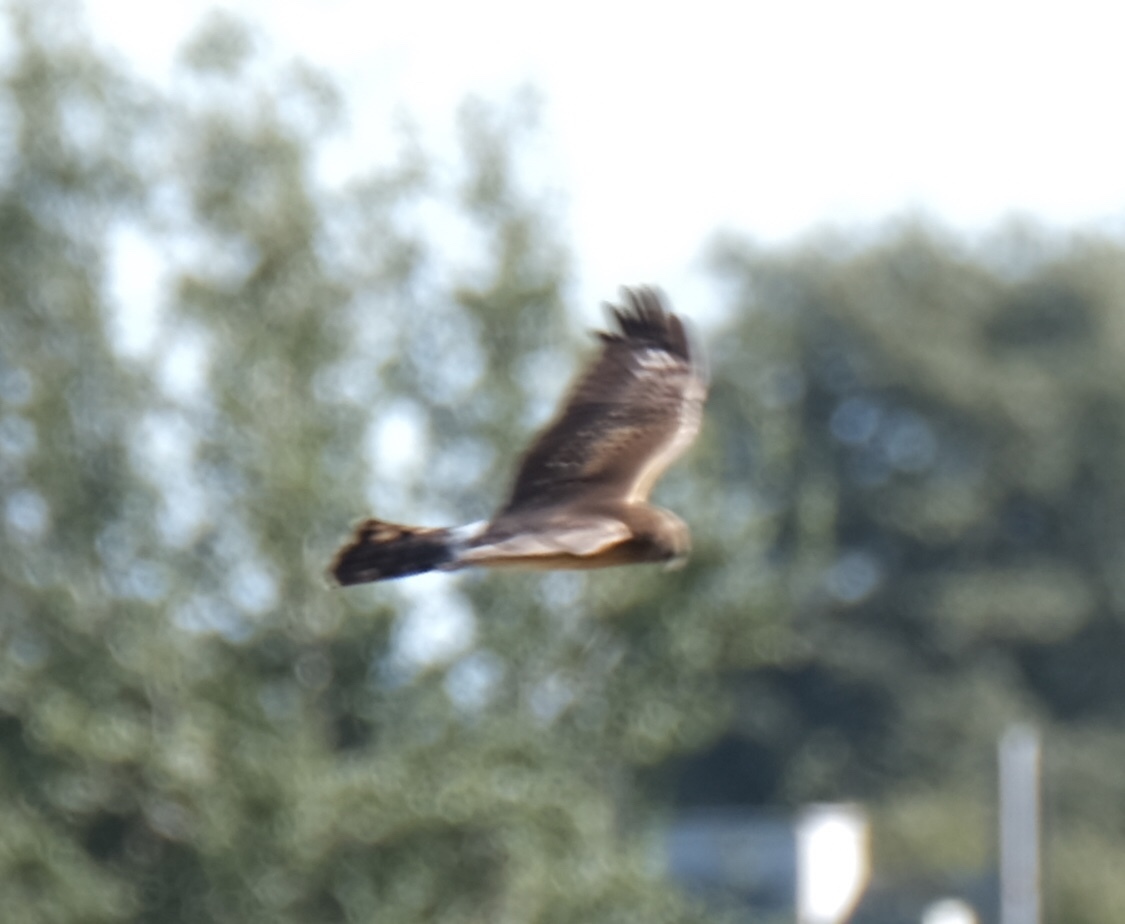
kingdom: Animalia
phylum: Chordata
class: Aves
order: Accipitriformes
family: Accipitridae
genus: Circus
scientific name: Circus cyaneus
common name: Hen harrier
